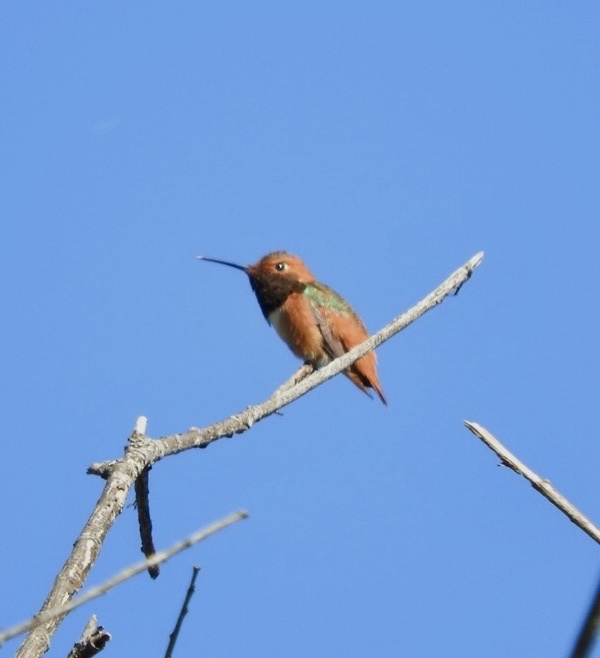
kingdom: Animalia
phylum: Chordata
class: Aves
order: Apodiformes
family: Trochilidae
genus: Selasphorus
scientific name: Selasphorus sasin
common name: Allen's hummingbird
